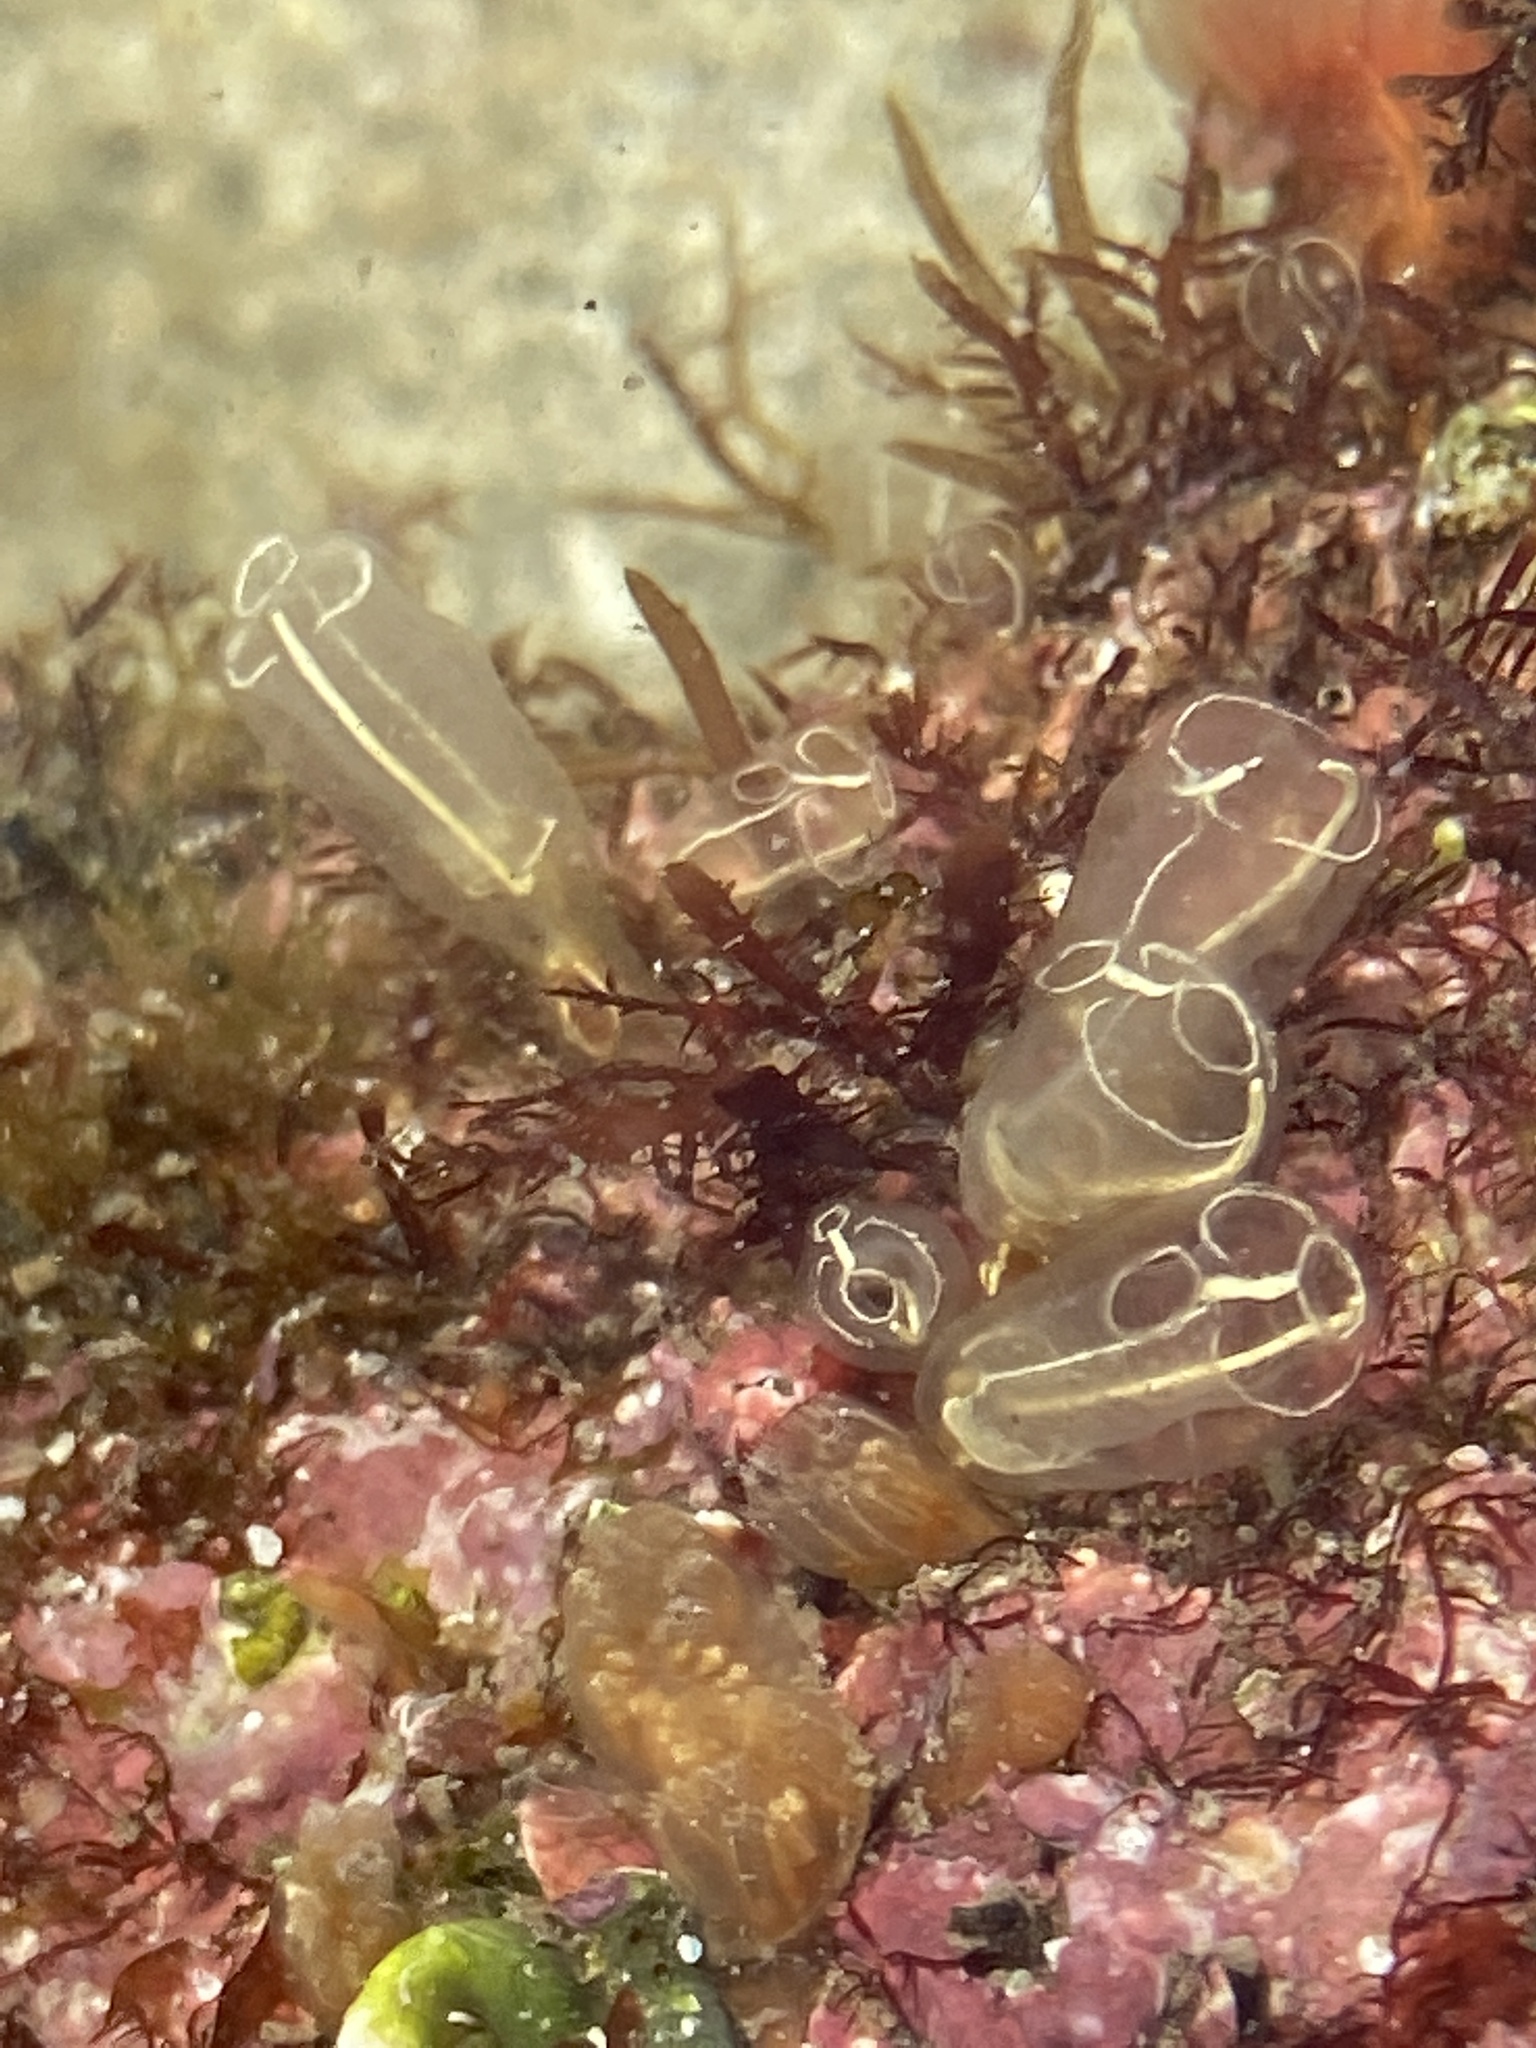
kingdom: Animalia
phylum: Chordata
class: Ascidiacea
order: Aplousobranchia
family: Clavelinidae
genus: Clavelina
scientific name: Clavelina lepadiformis
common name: Light bulb tunicate
